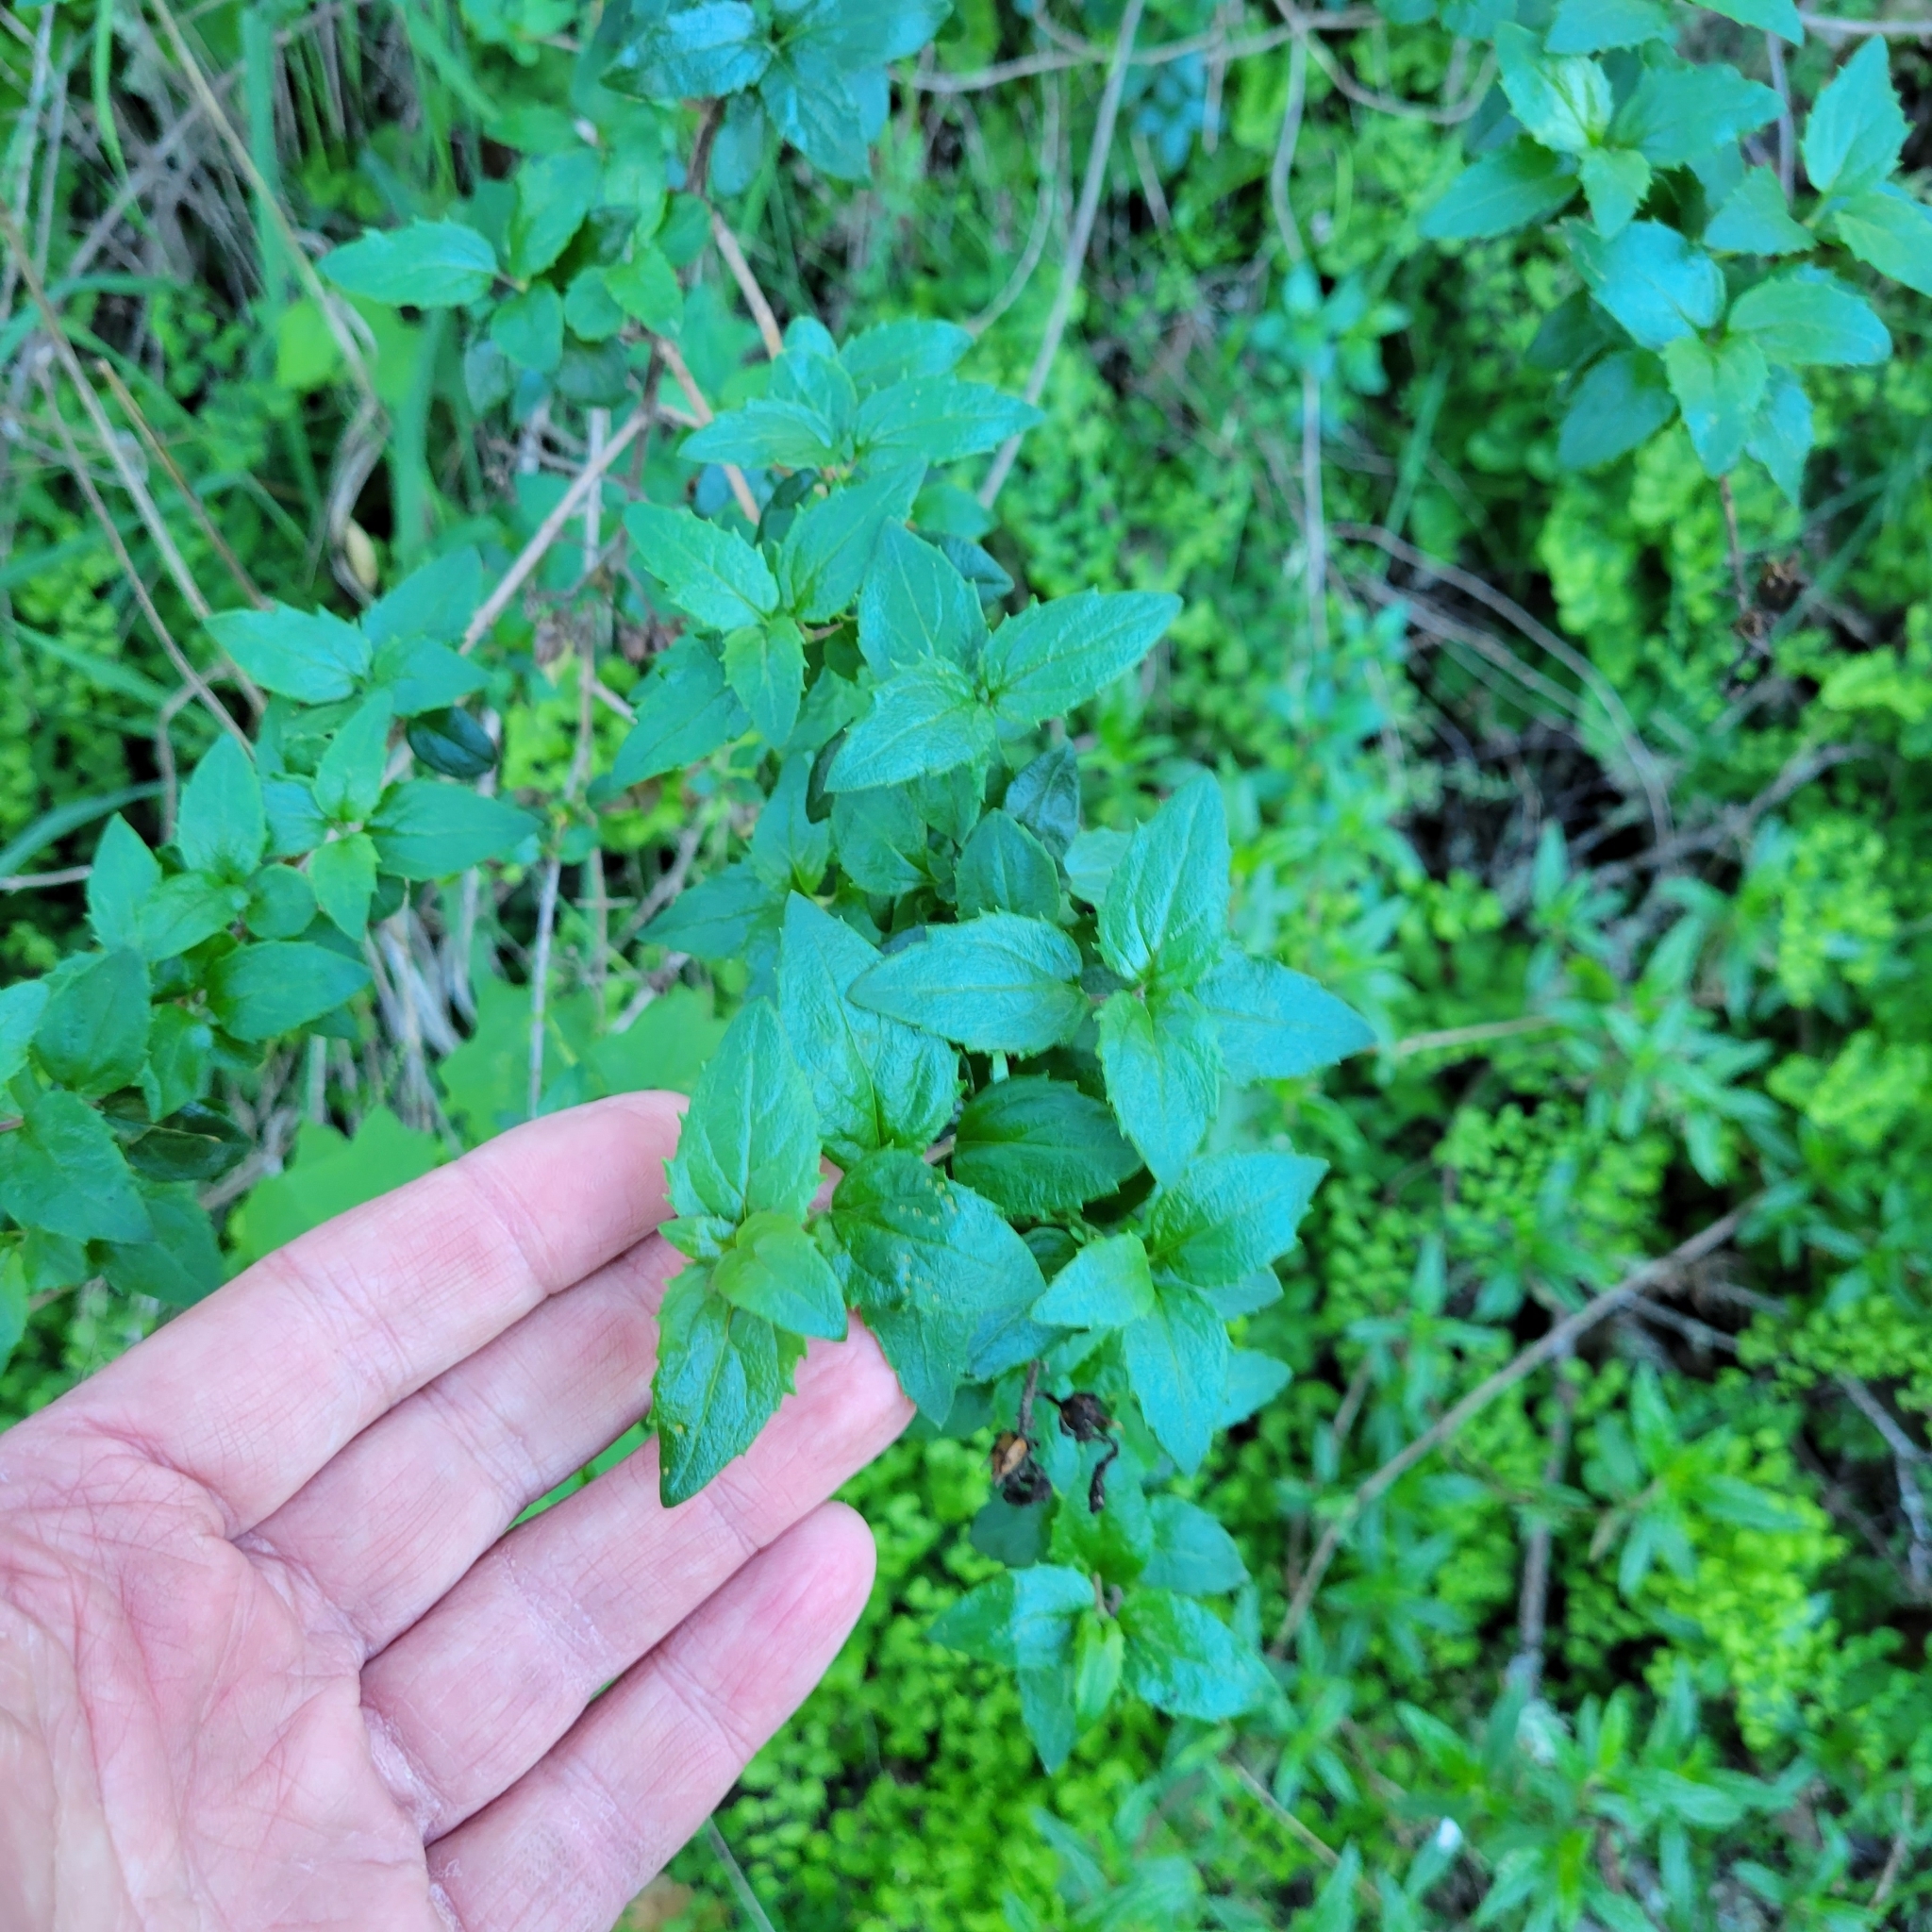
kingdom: Plantae
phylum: Tracheophyta
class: Magnoliopsida
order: Lamiales
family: Plantaginaceae
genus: Keckiella
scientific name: Keckiella cordifolia
